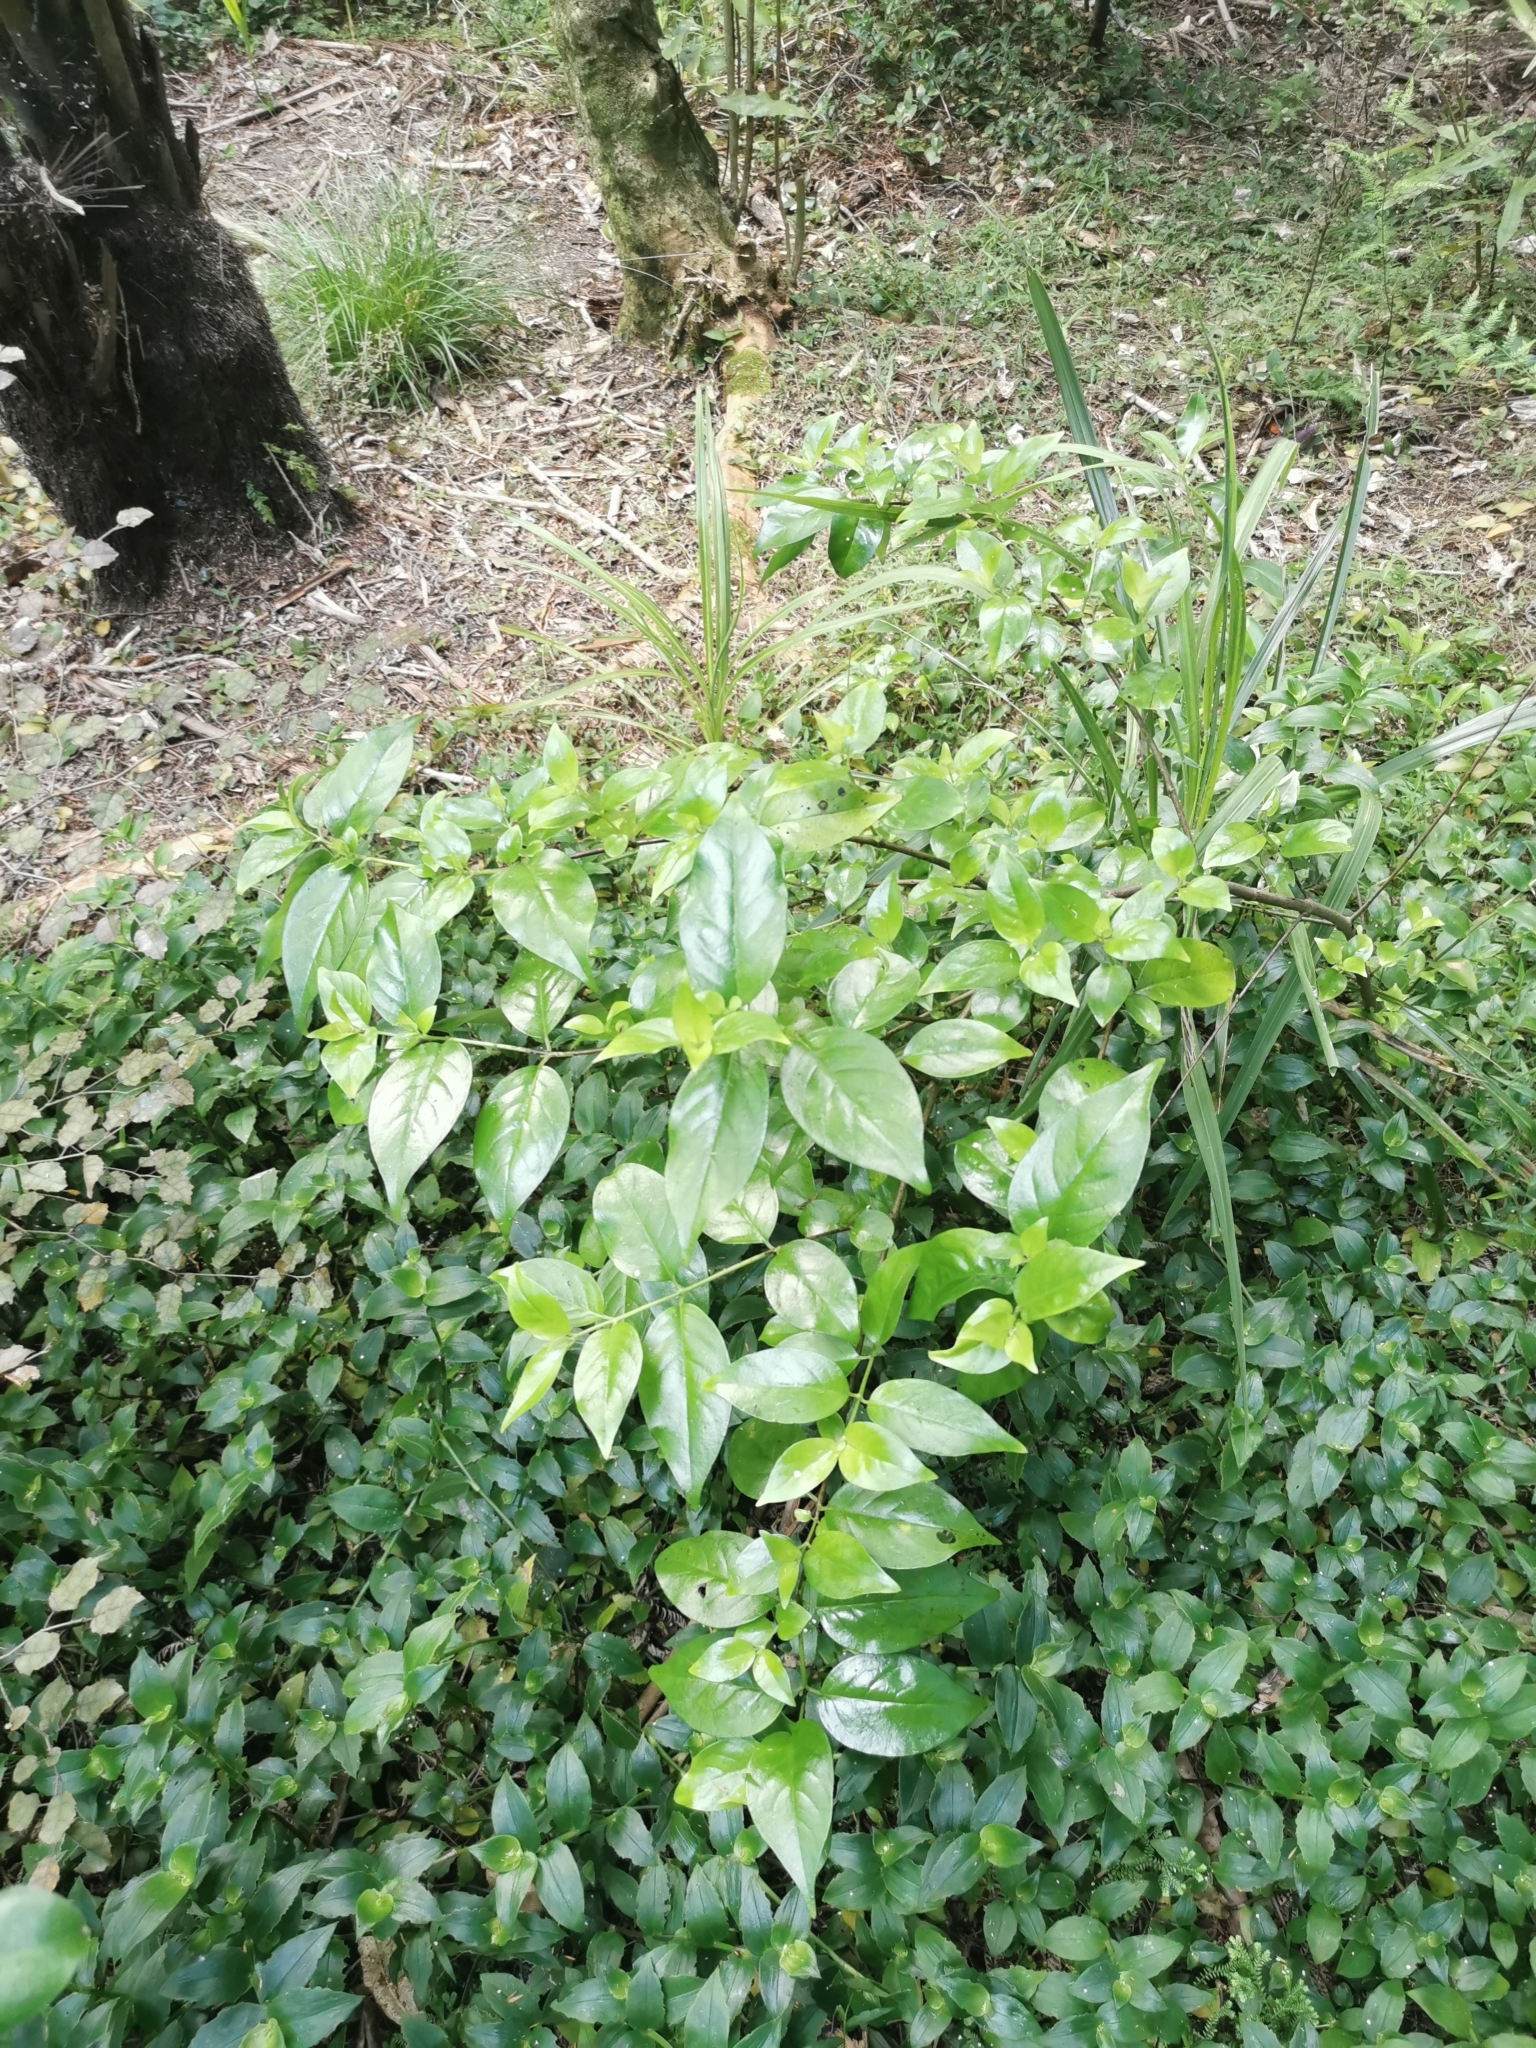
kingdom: Plantae
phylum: Tracheophyta
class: Magnoliopsida
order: Gentianales
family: Loganiaceae
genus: Geniostoma
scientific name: Geniostoma ligustrifolium
